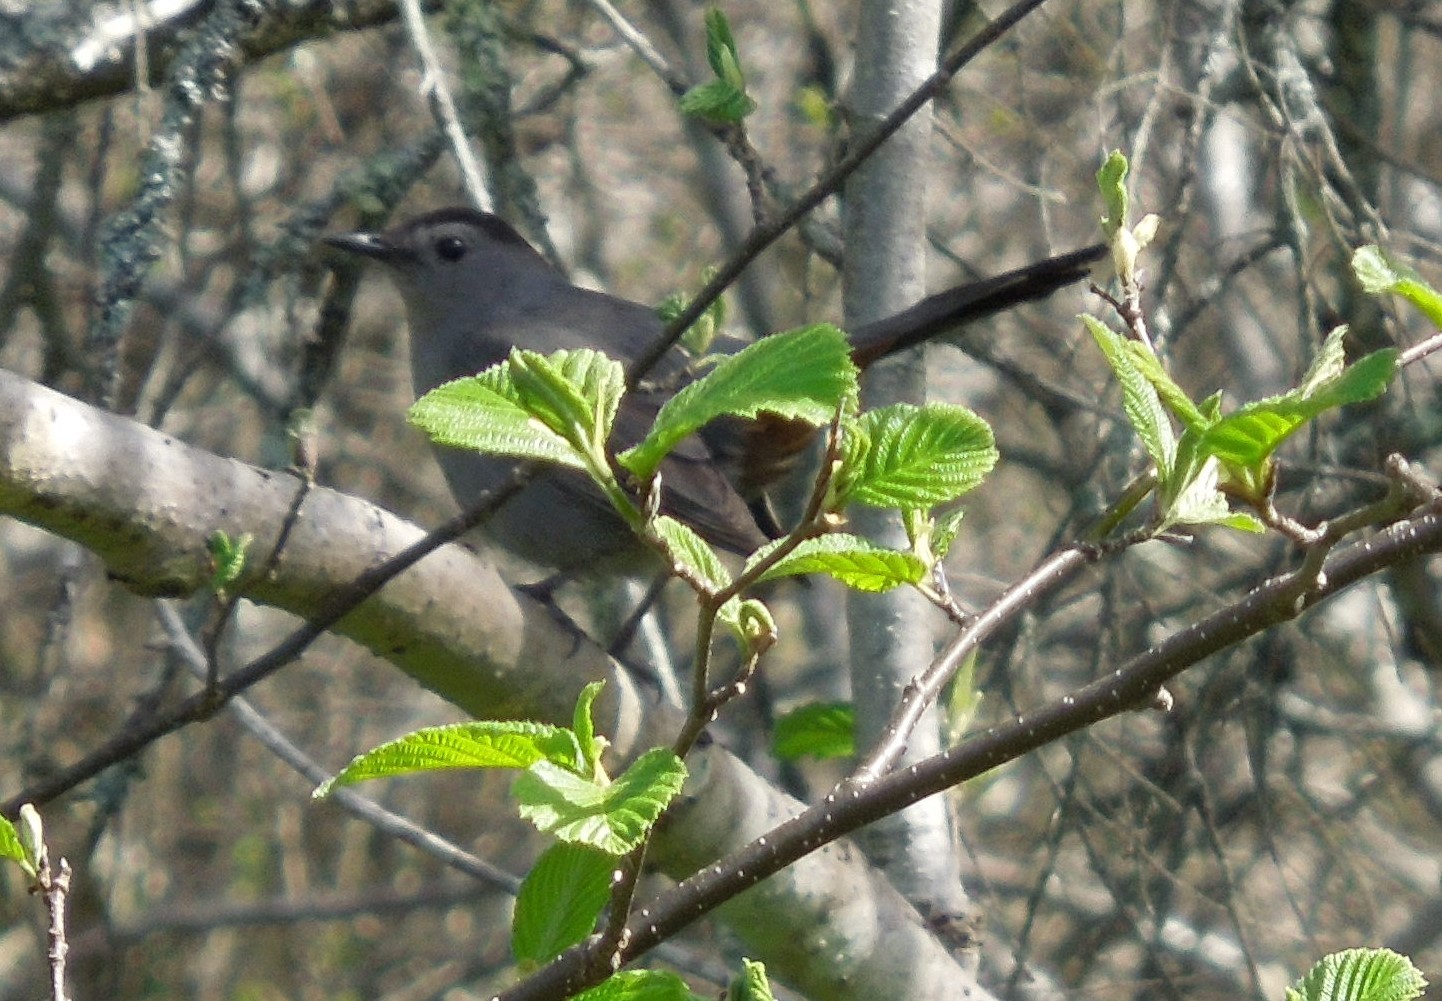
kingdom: Animalia
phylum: Chordata
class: Aves
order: Passeriformes
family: Mimidae
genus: Dumetella
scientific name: Dumetella carolinensis
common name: Gray catbird
